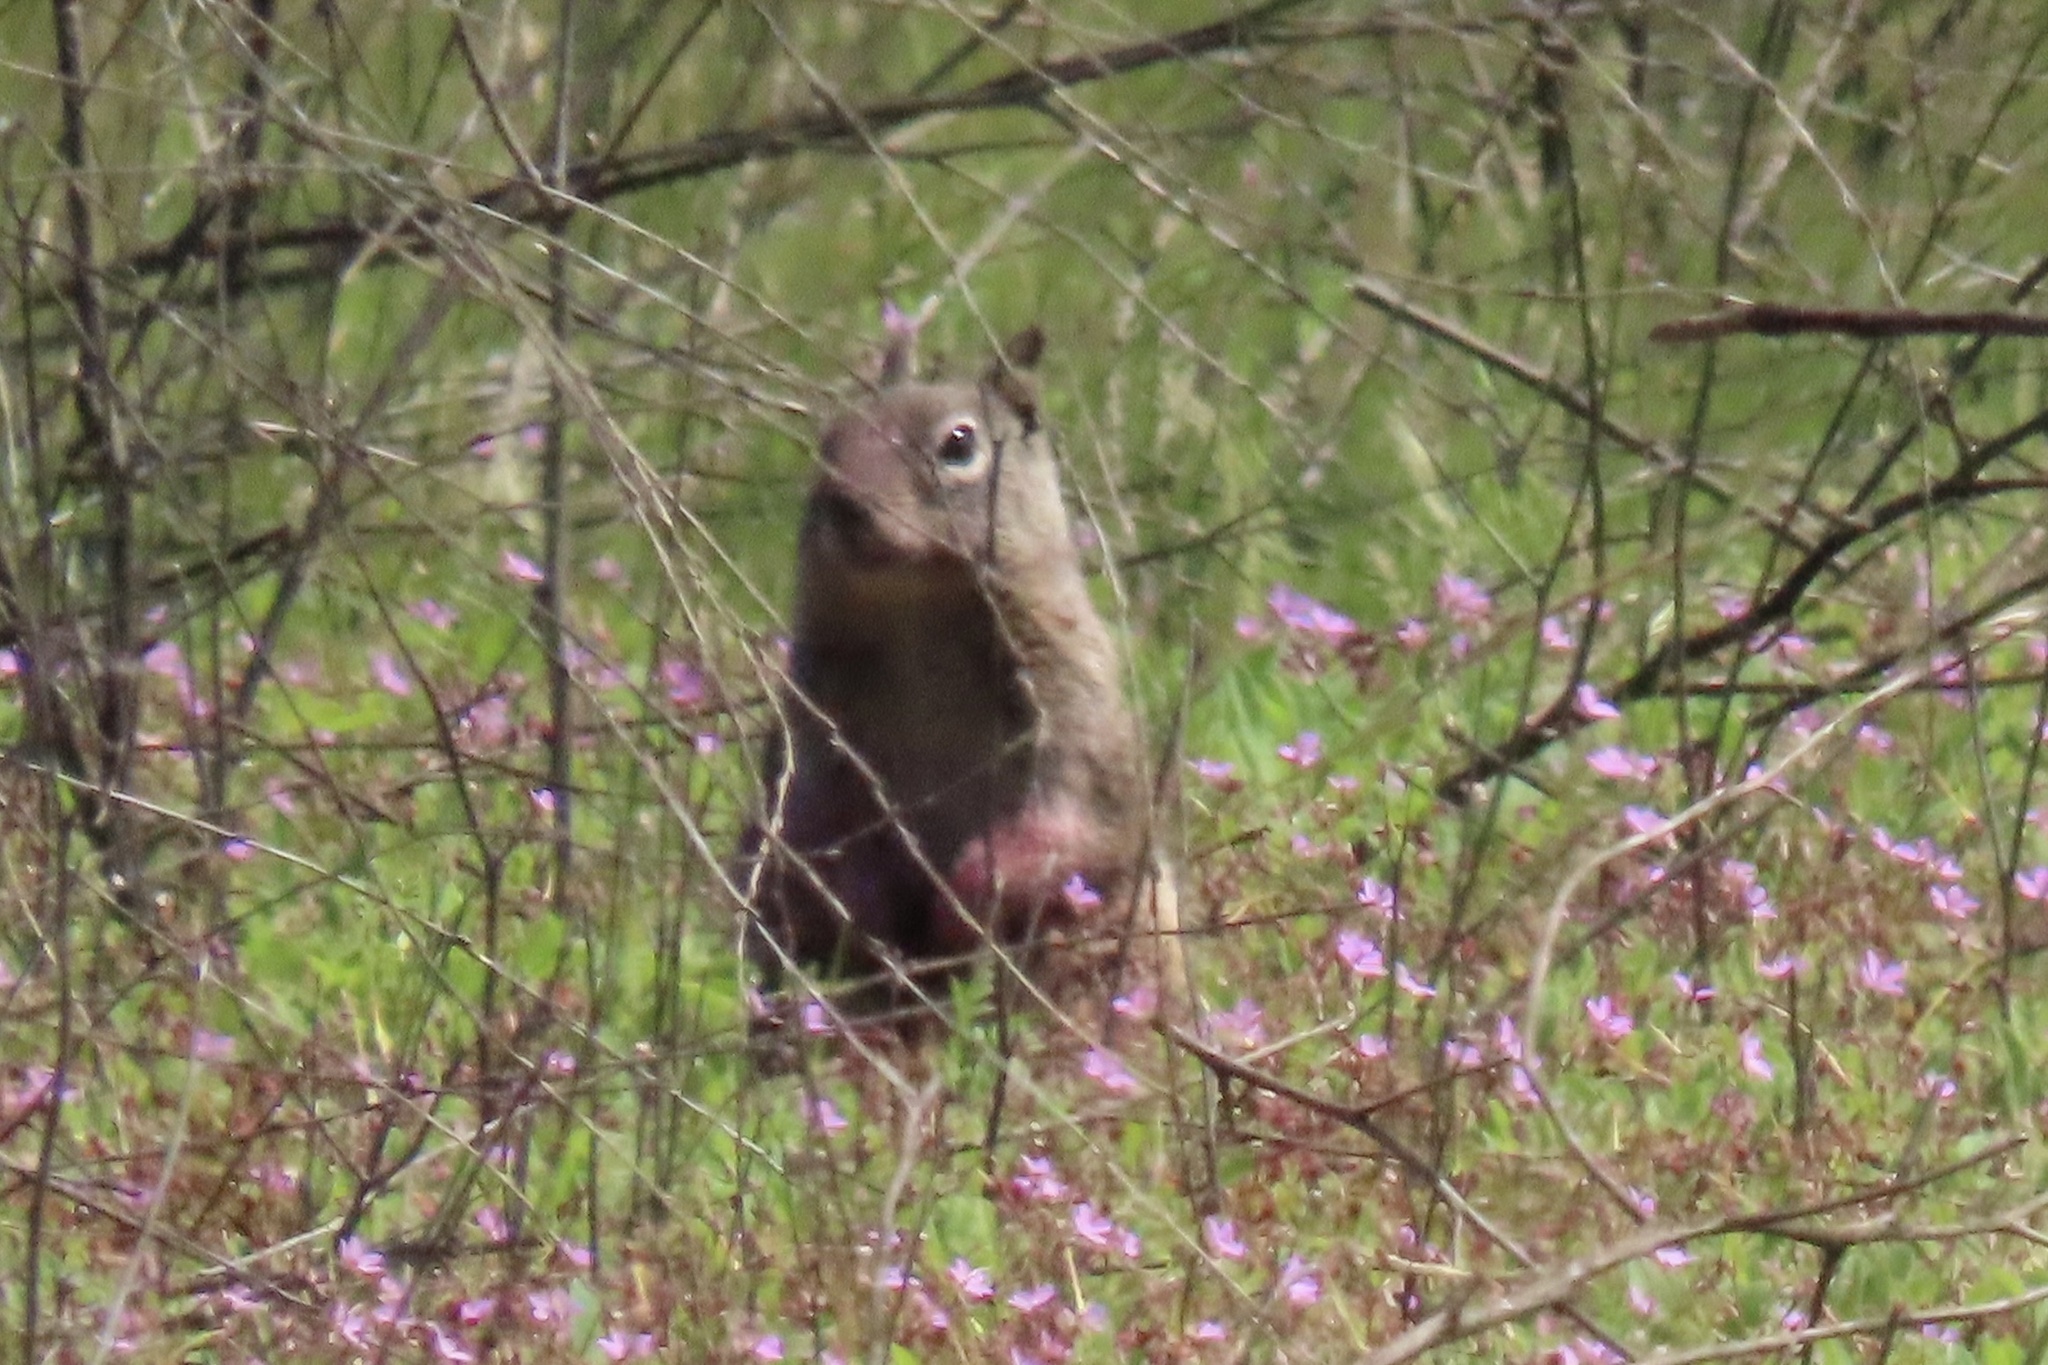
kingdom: Animalia
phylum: Chordata
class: Mammalia
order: Rodentia
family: Sciuridae
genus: Otospermophilus
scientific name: Otospermophilus beecheyi
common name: California ground squirrel
